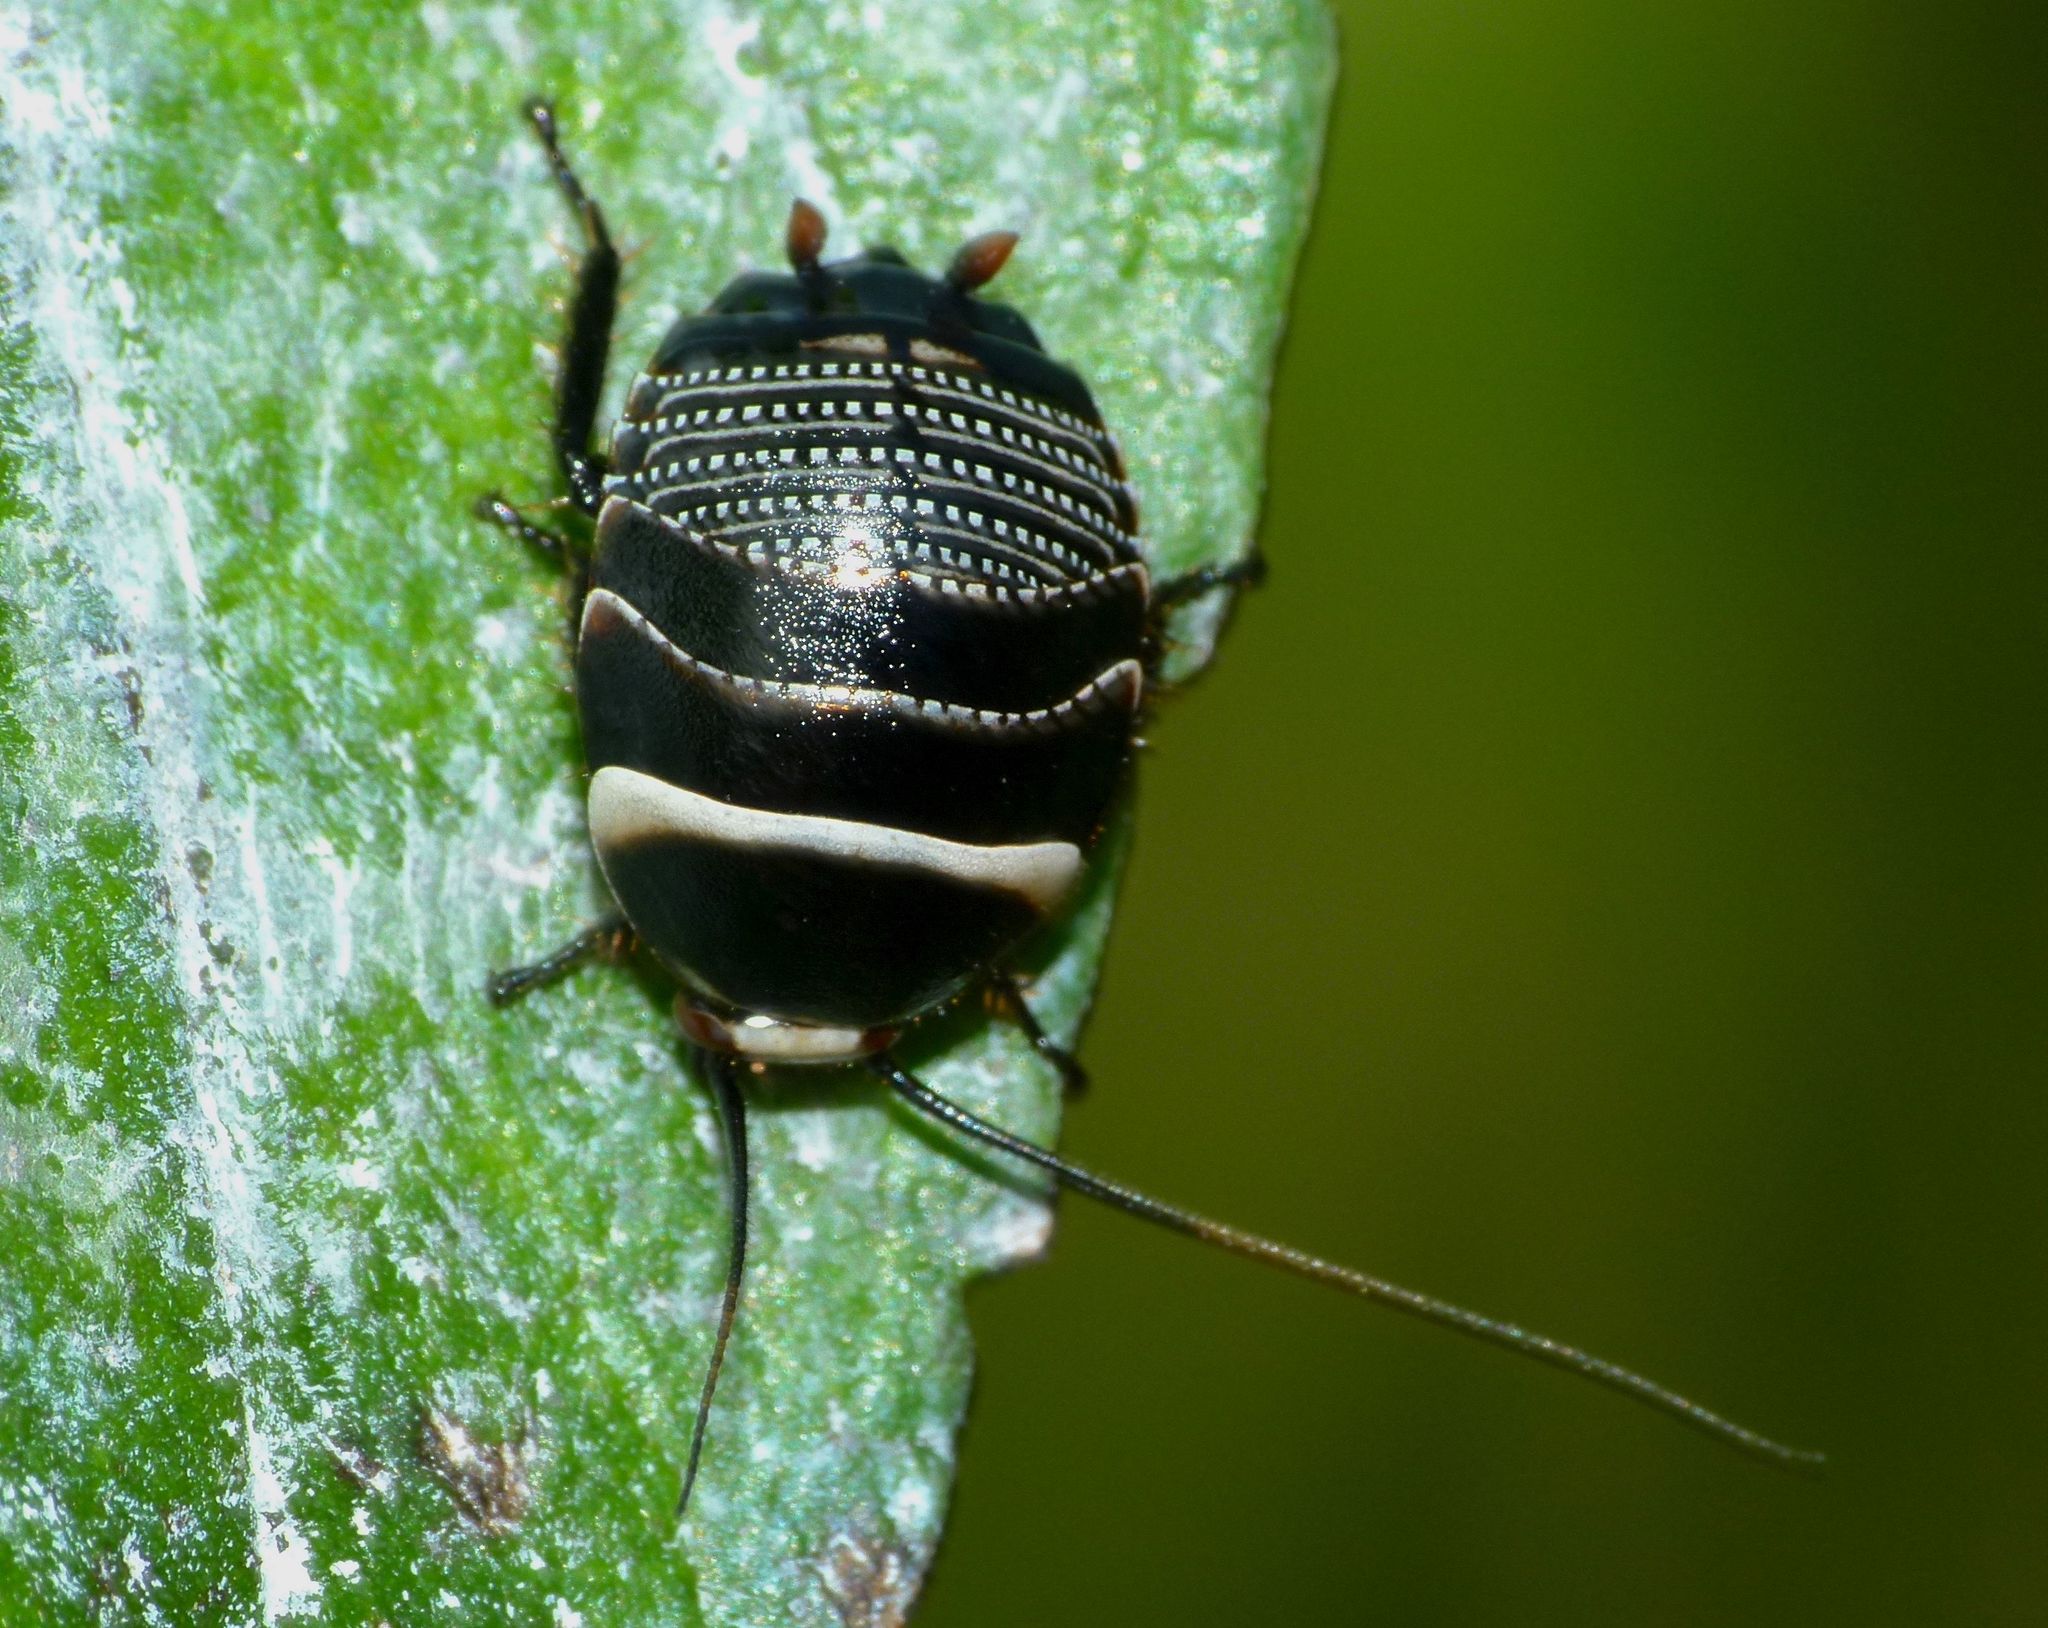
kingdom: Animalia
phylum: Arthropoda
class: Insecta
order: Blattodea
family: Ectobiidae
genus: Ellipsidion
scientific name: Ellipsidion australe
